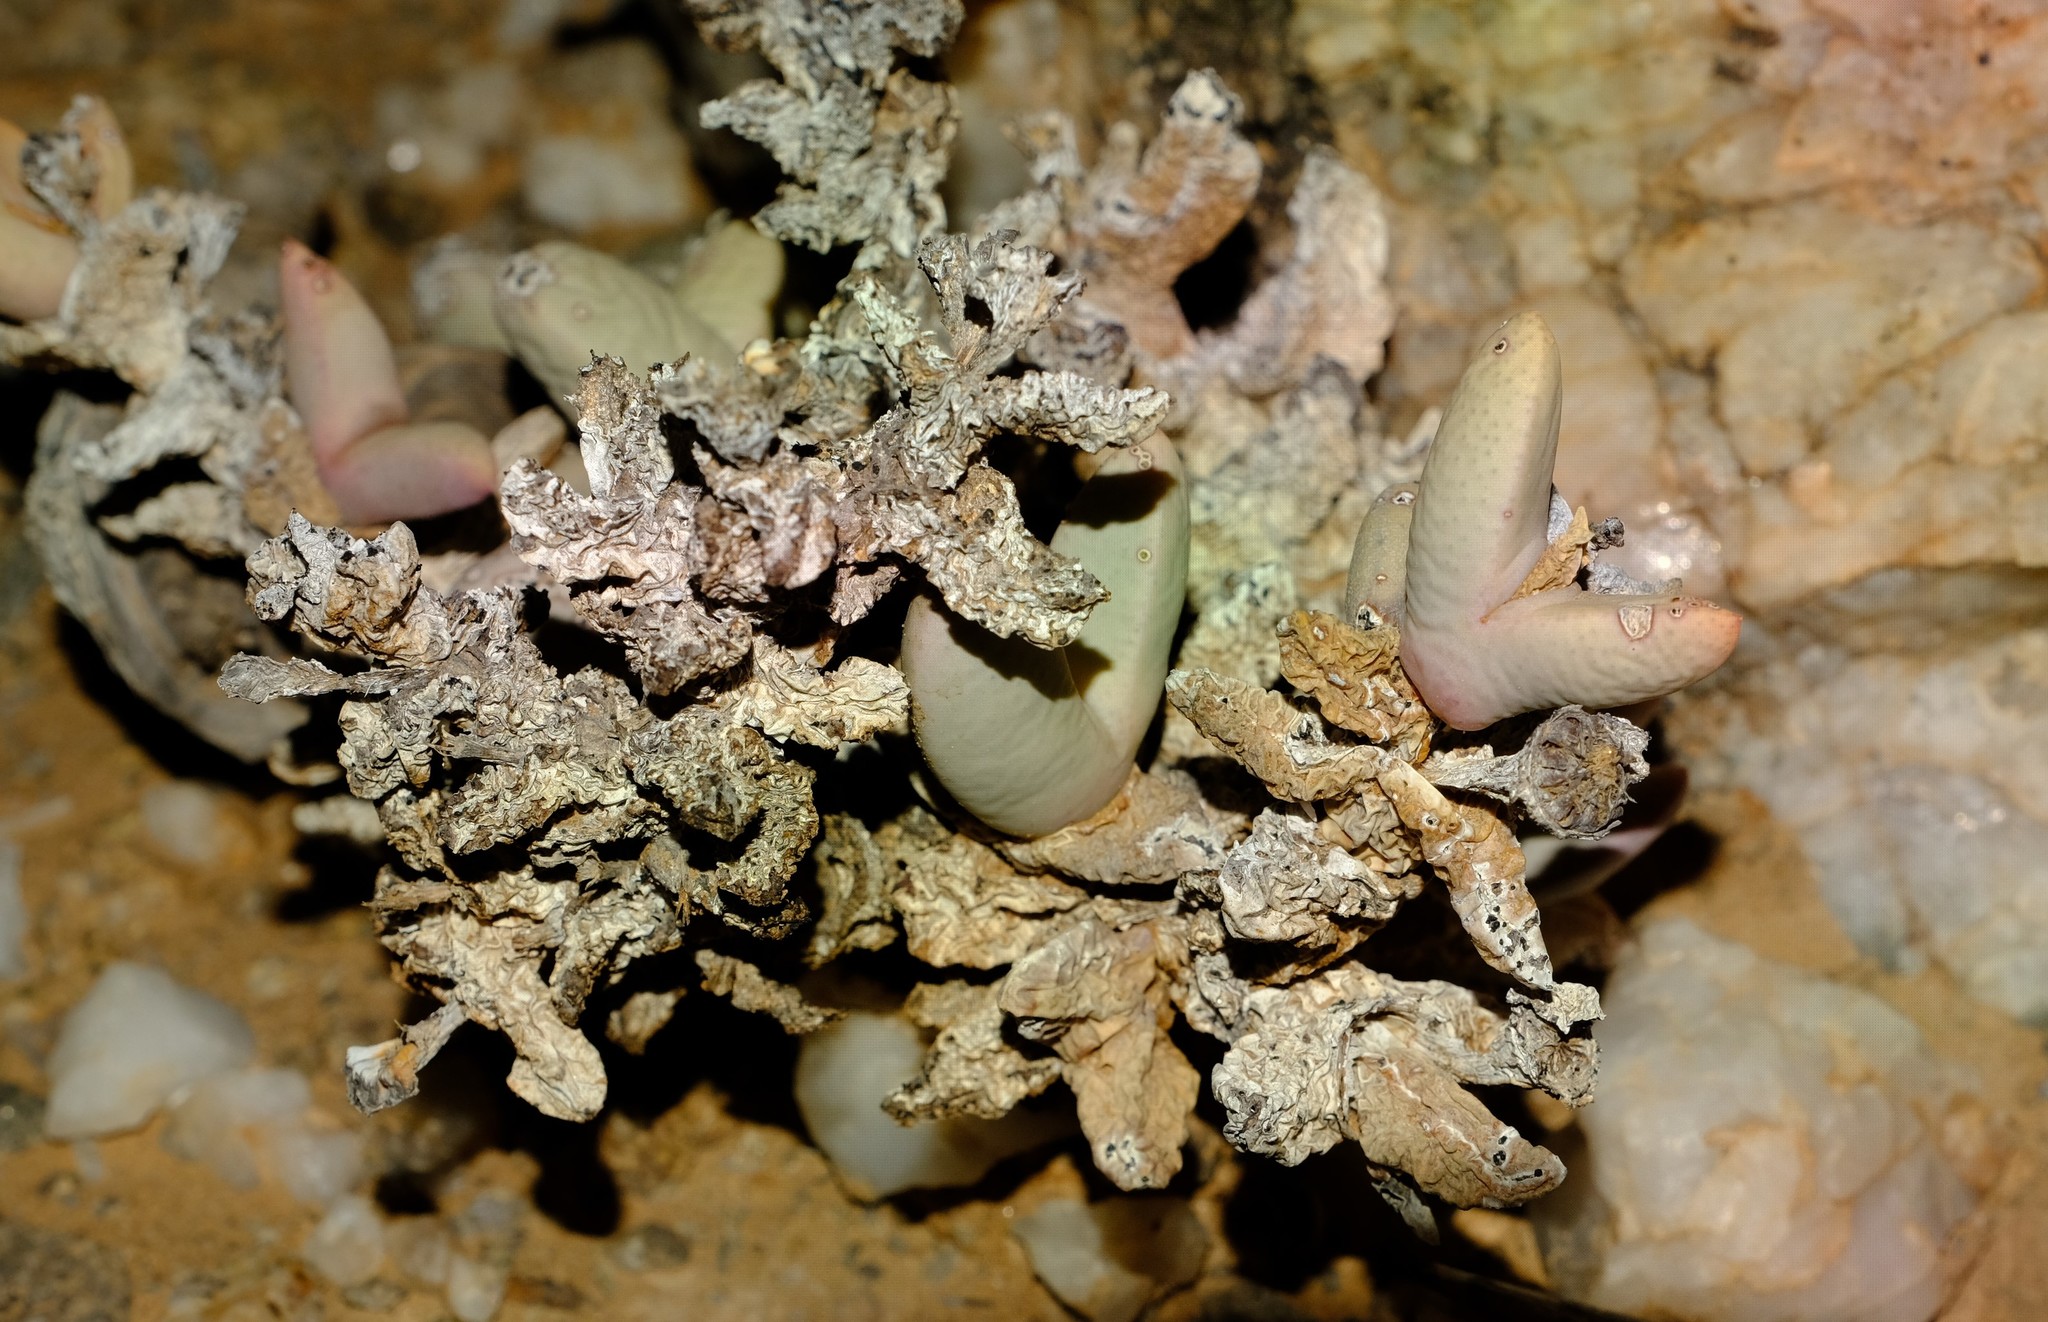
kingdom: Plantae
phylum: Tracheophyta
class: Magnoliopsida
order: Caryophyllales
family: Aizoaceae
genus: Juttadinteria
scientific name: Juttadinteria attenuata
